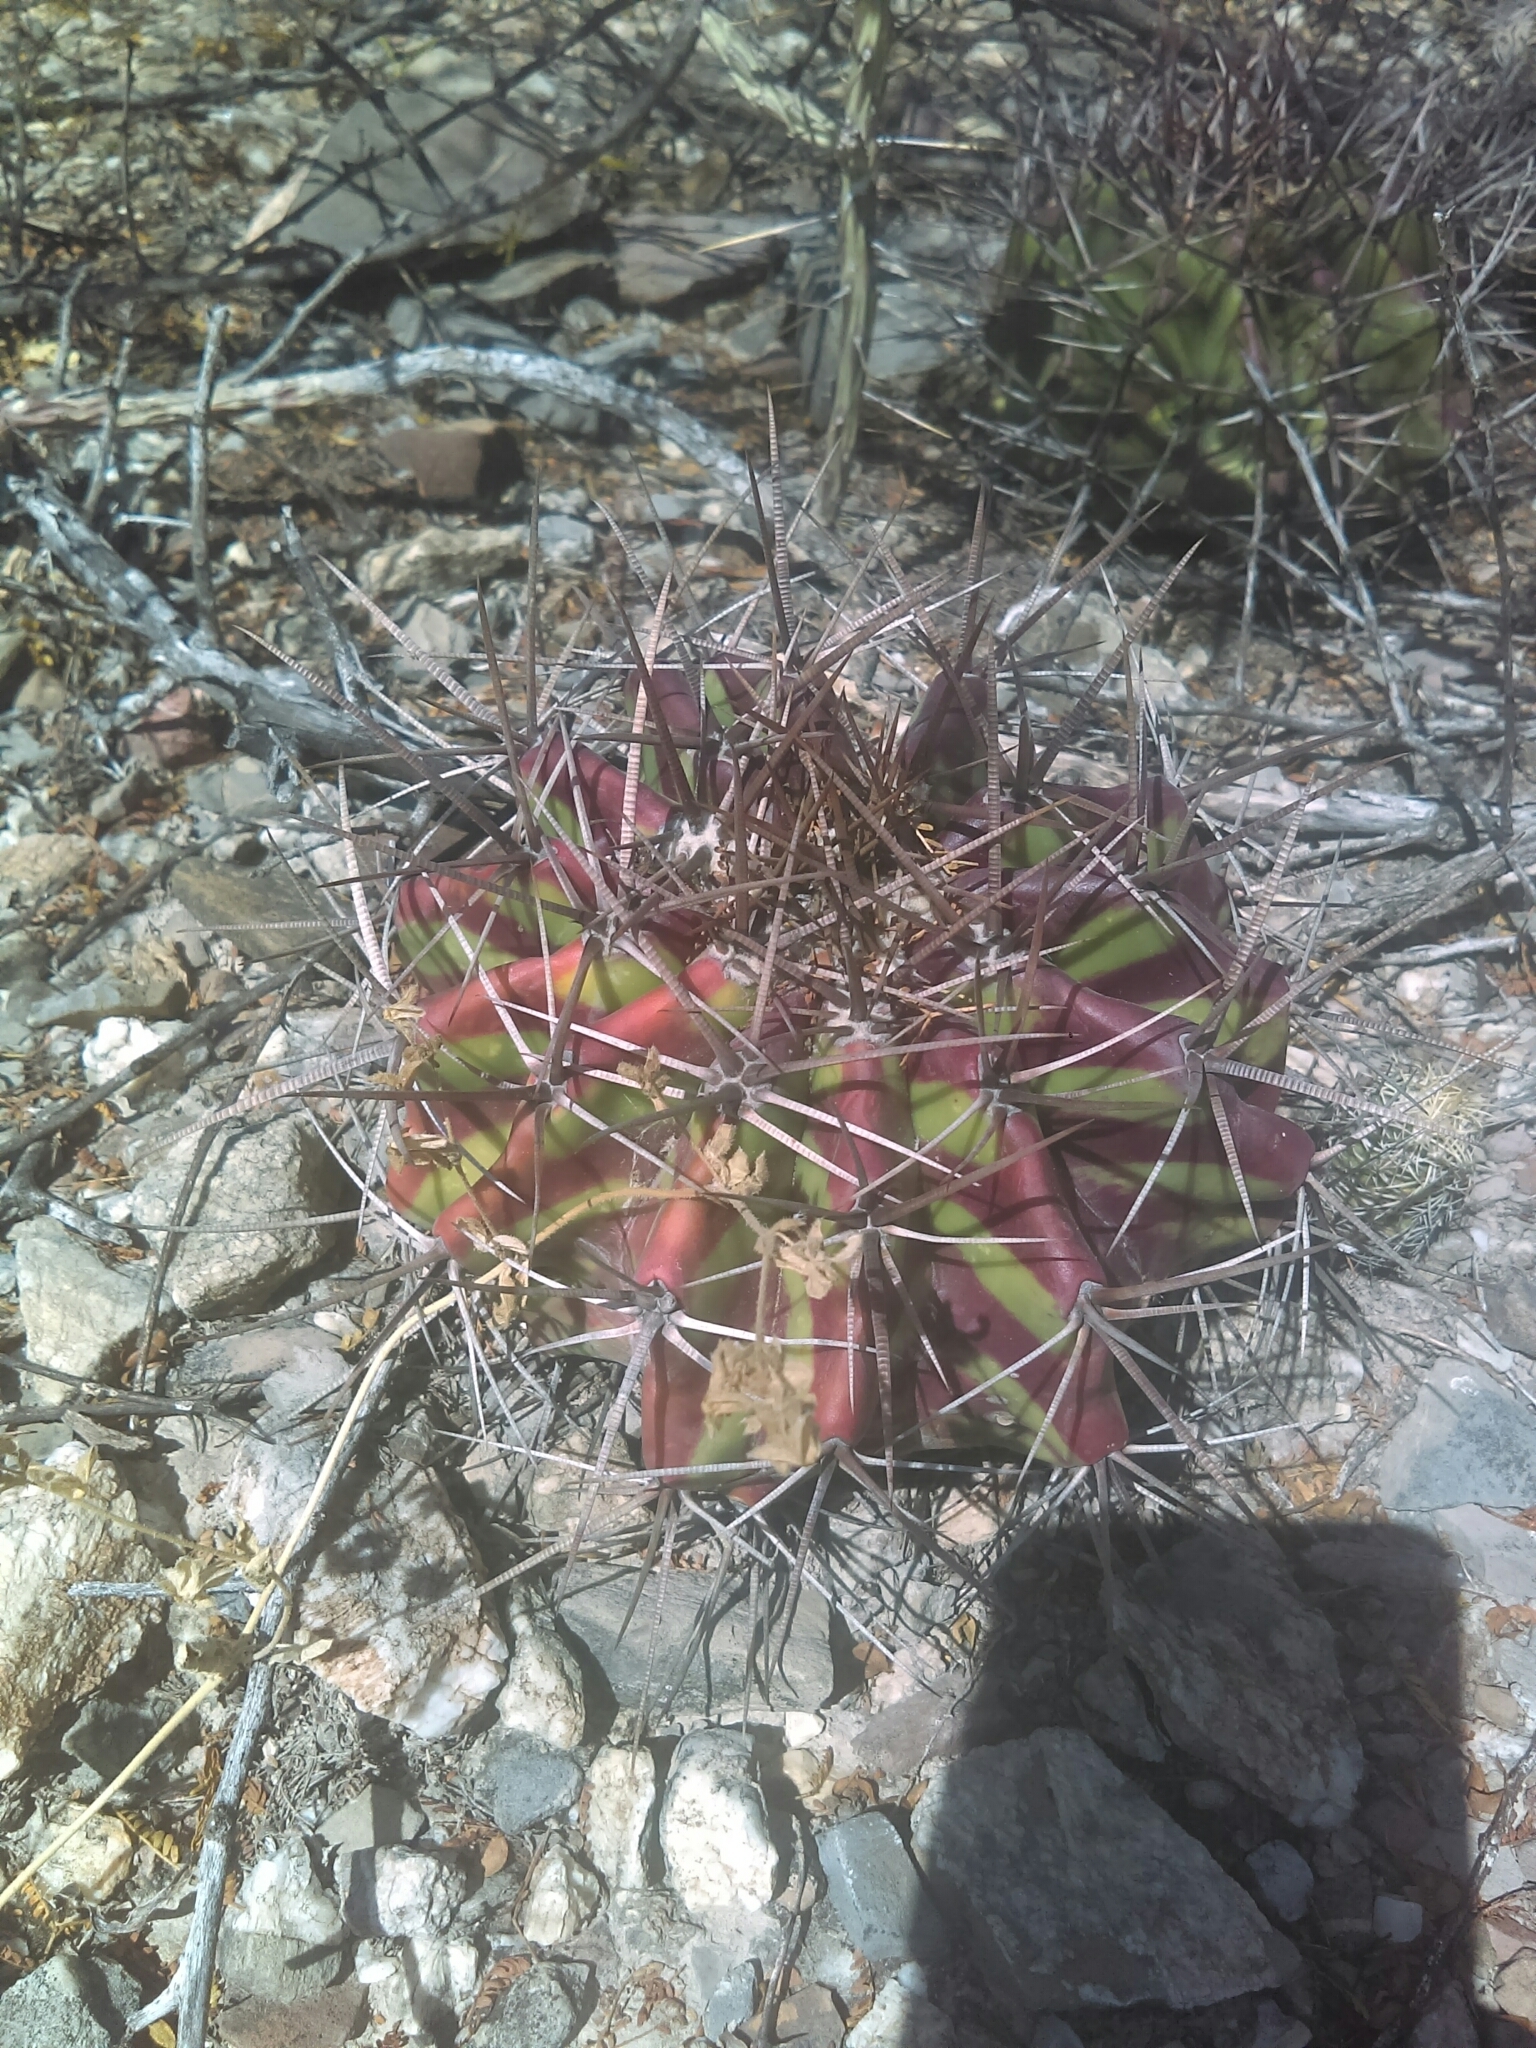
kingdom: Plantae
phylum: Tracheophyta
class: Magnoliopsida
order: Caryophyllales
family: Cactaceae
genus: Echinocactus
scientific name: Echinocactus platyacanthus
